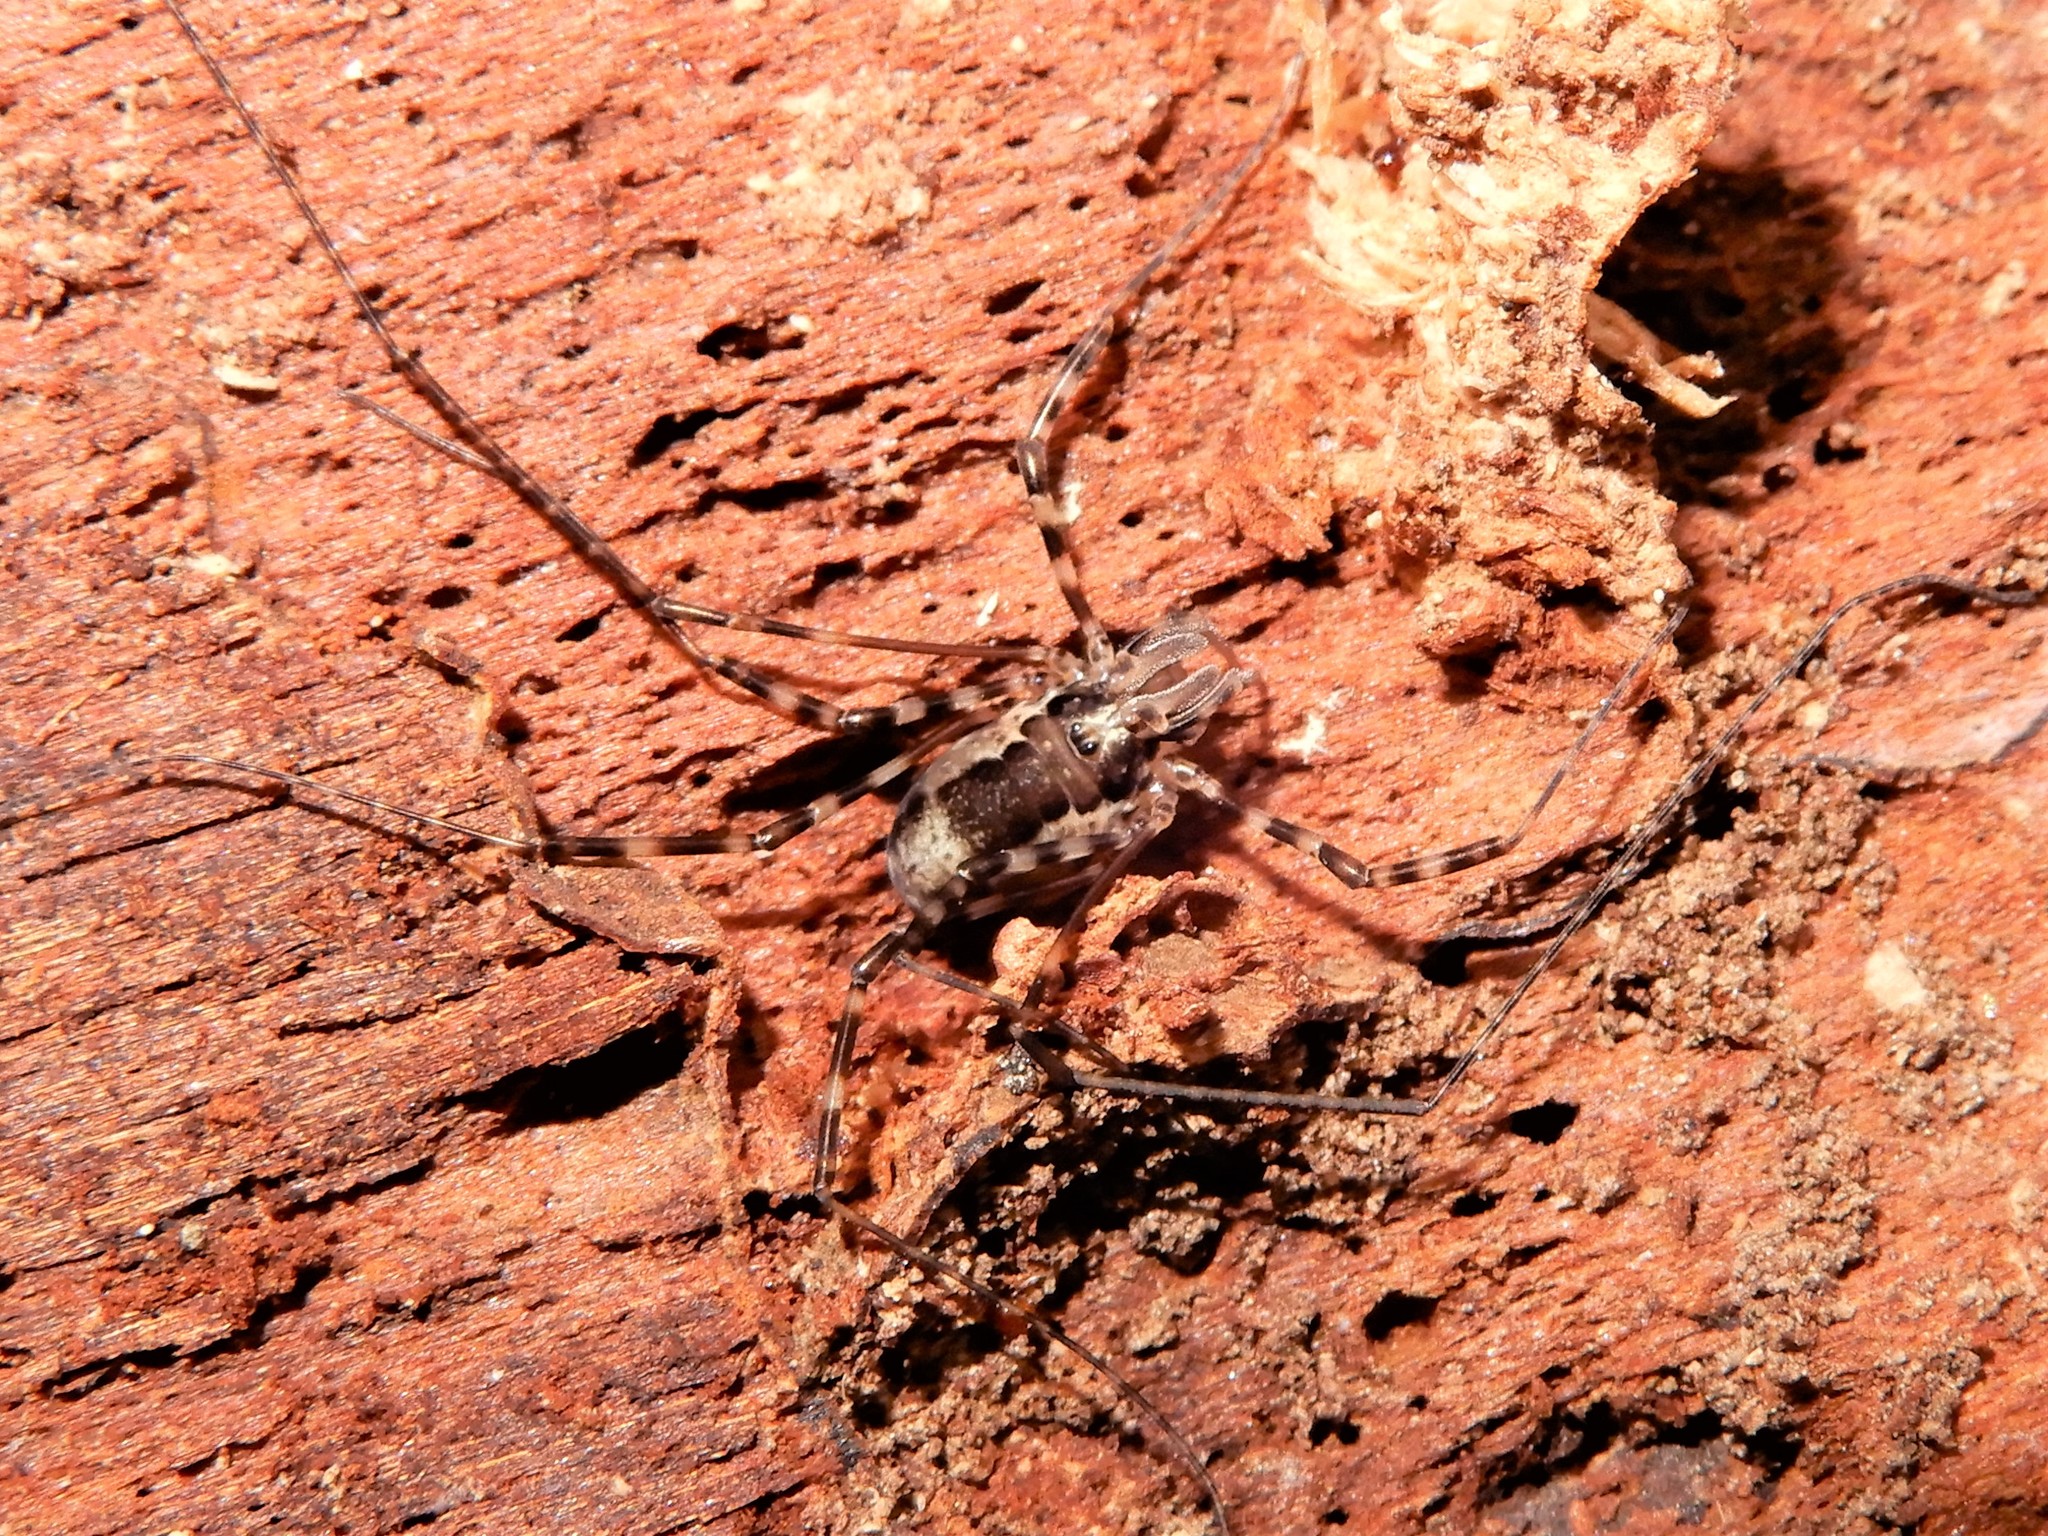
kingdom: Animalia
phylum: Arthropoda
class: Arachnida
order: Opiliones
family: Neopilionidae
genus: Megalopsalis
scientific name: Megalopsalis triascuta
